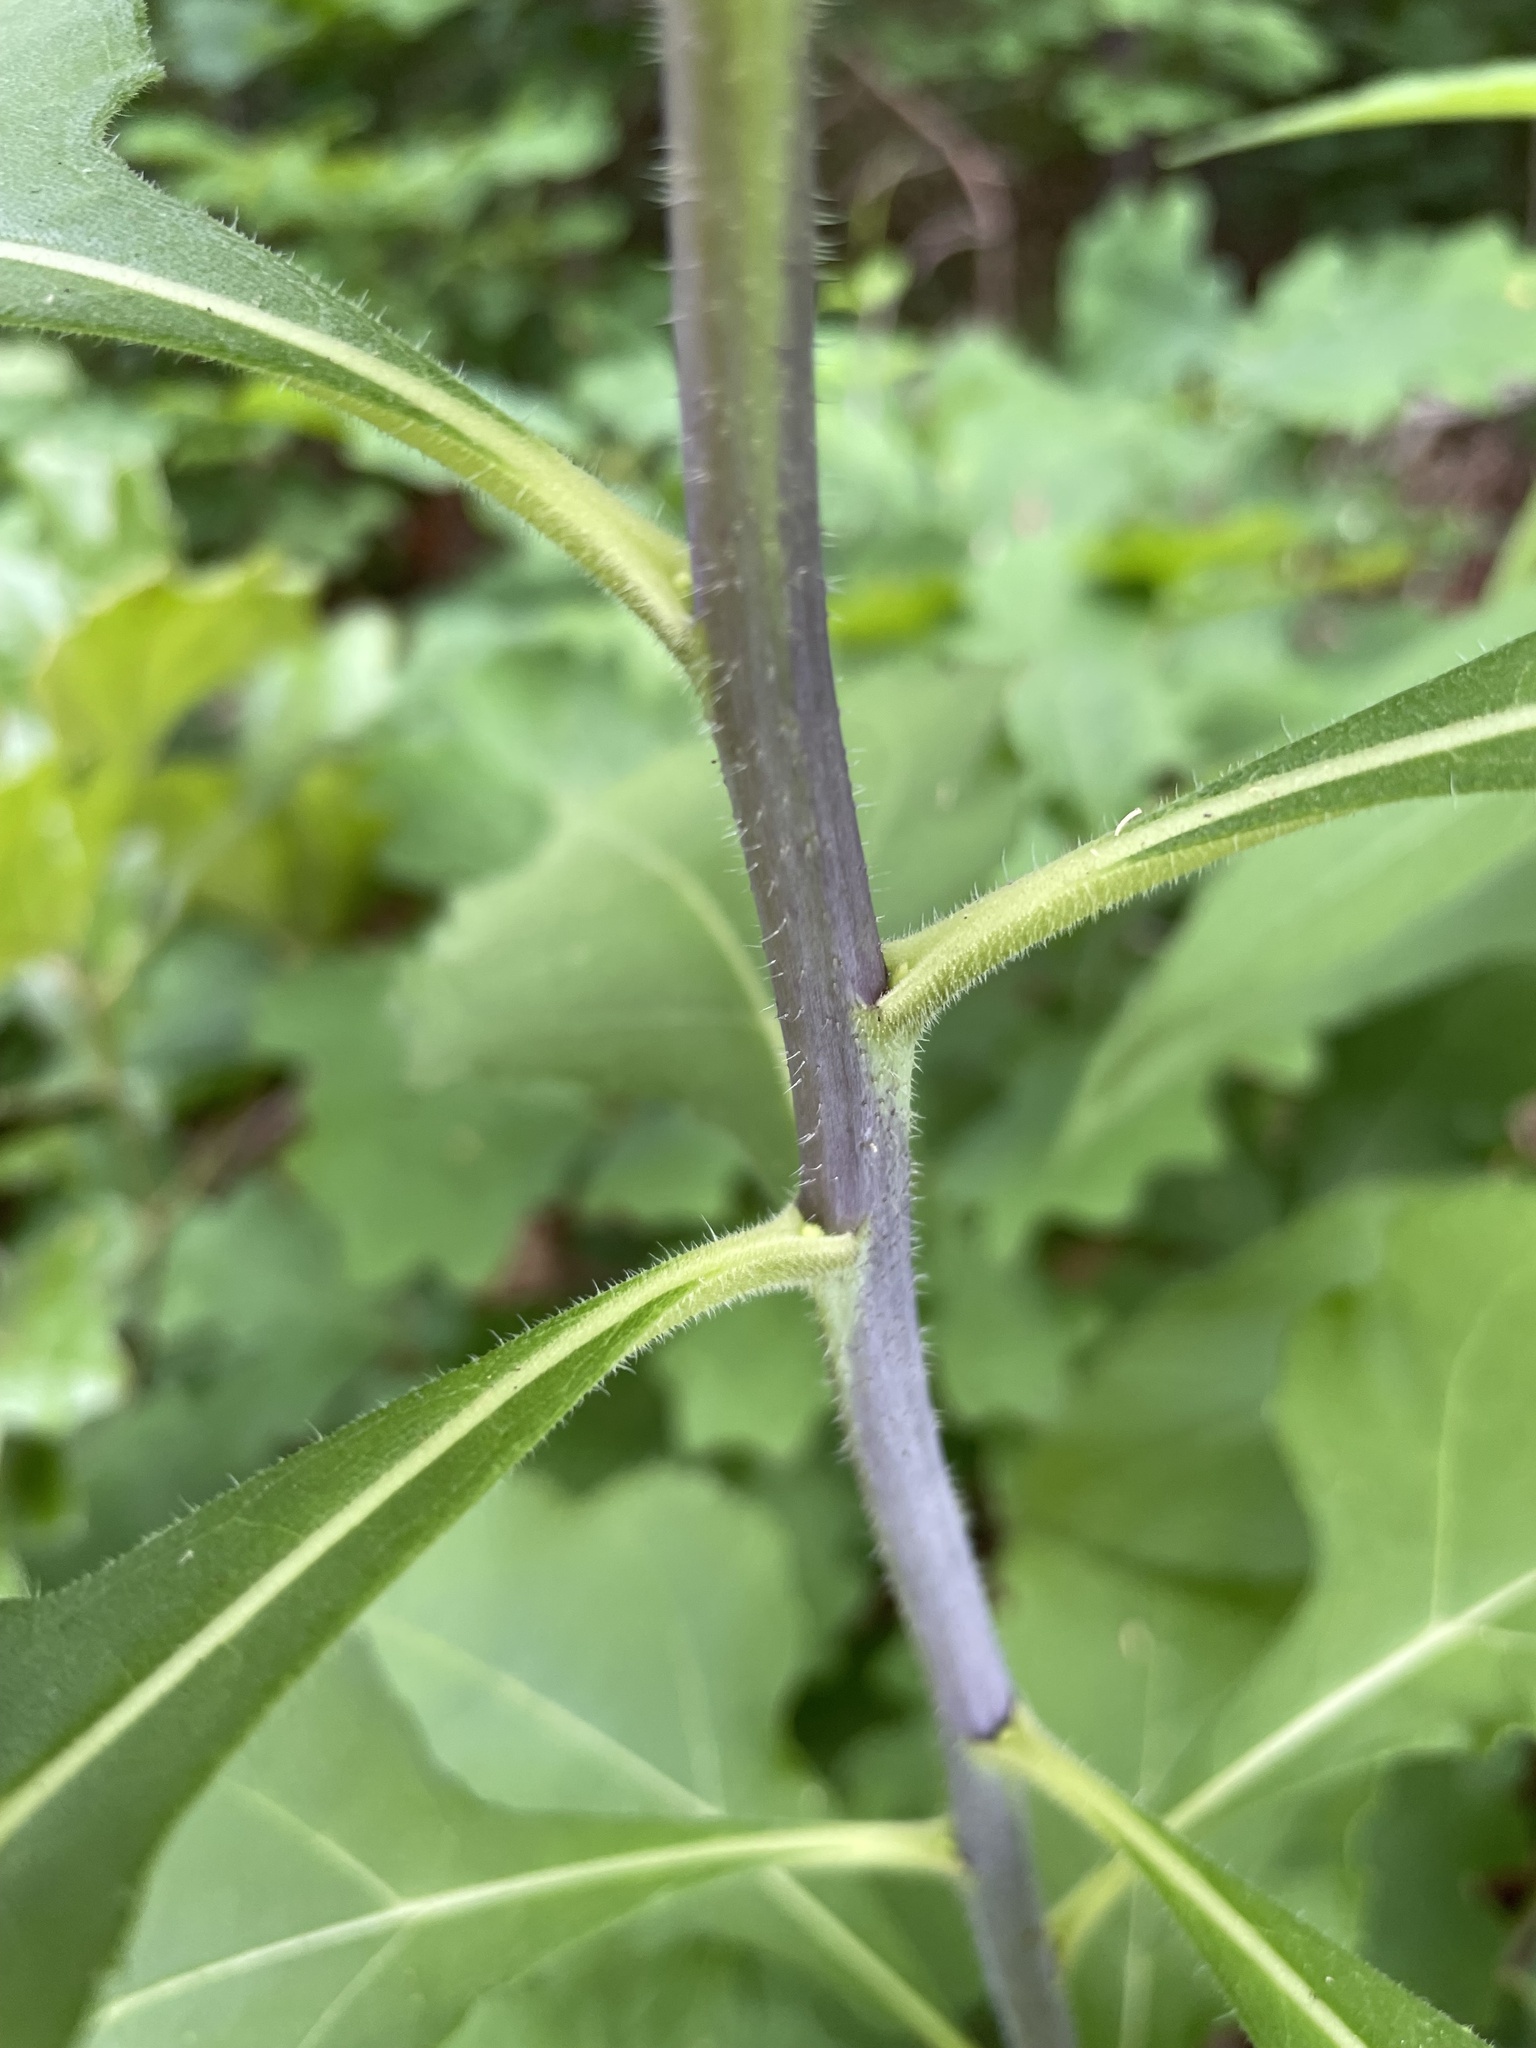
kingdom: Plantae
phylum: Tracheophyta
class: Magnoliopsida
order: Asterales
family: Asteraceae
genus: Helianthus
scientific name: Helianthus tuberosus
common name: Jerusalem artichoke
